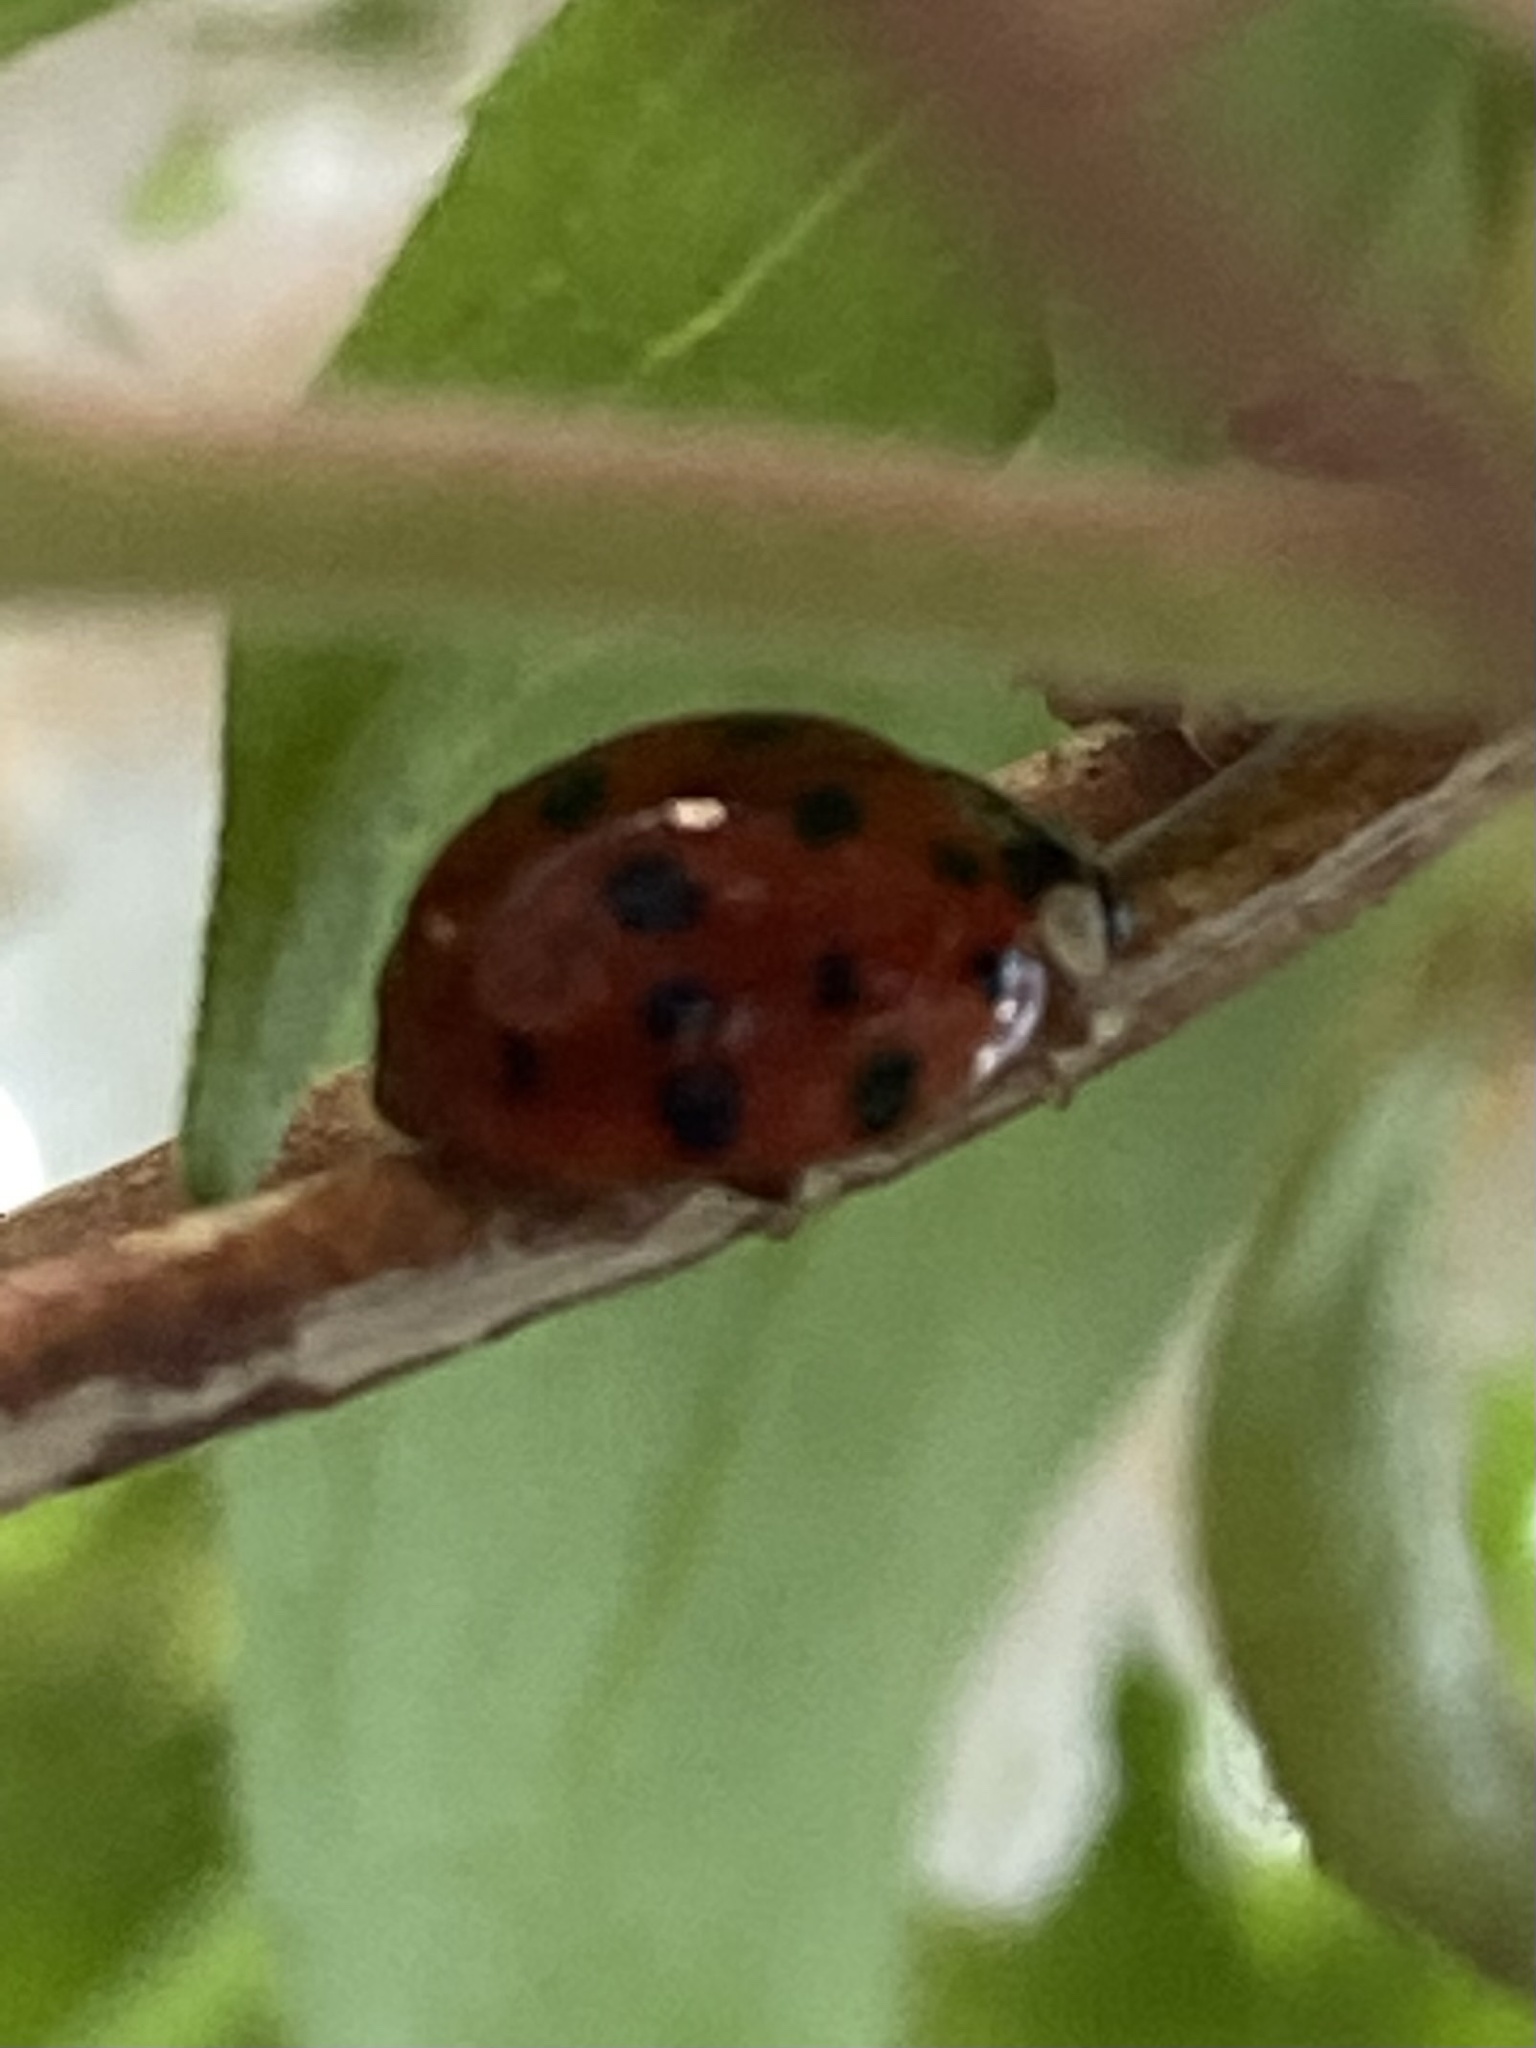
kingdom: Animalia
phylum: Arthropoda
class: Insecta
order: Coleoptera
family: Coccinellidae
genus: Harmonia
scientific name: Harmonia axyridis
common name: Harlequin ladybird
